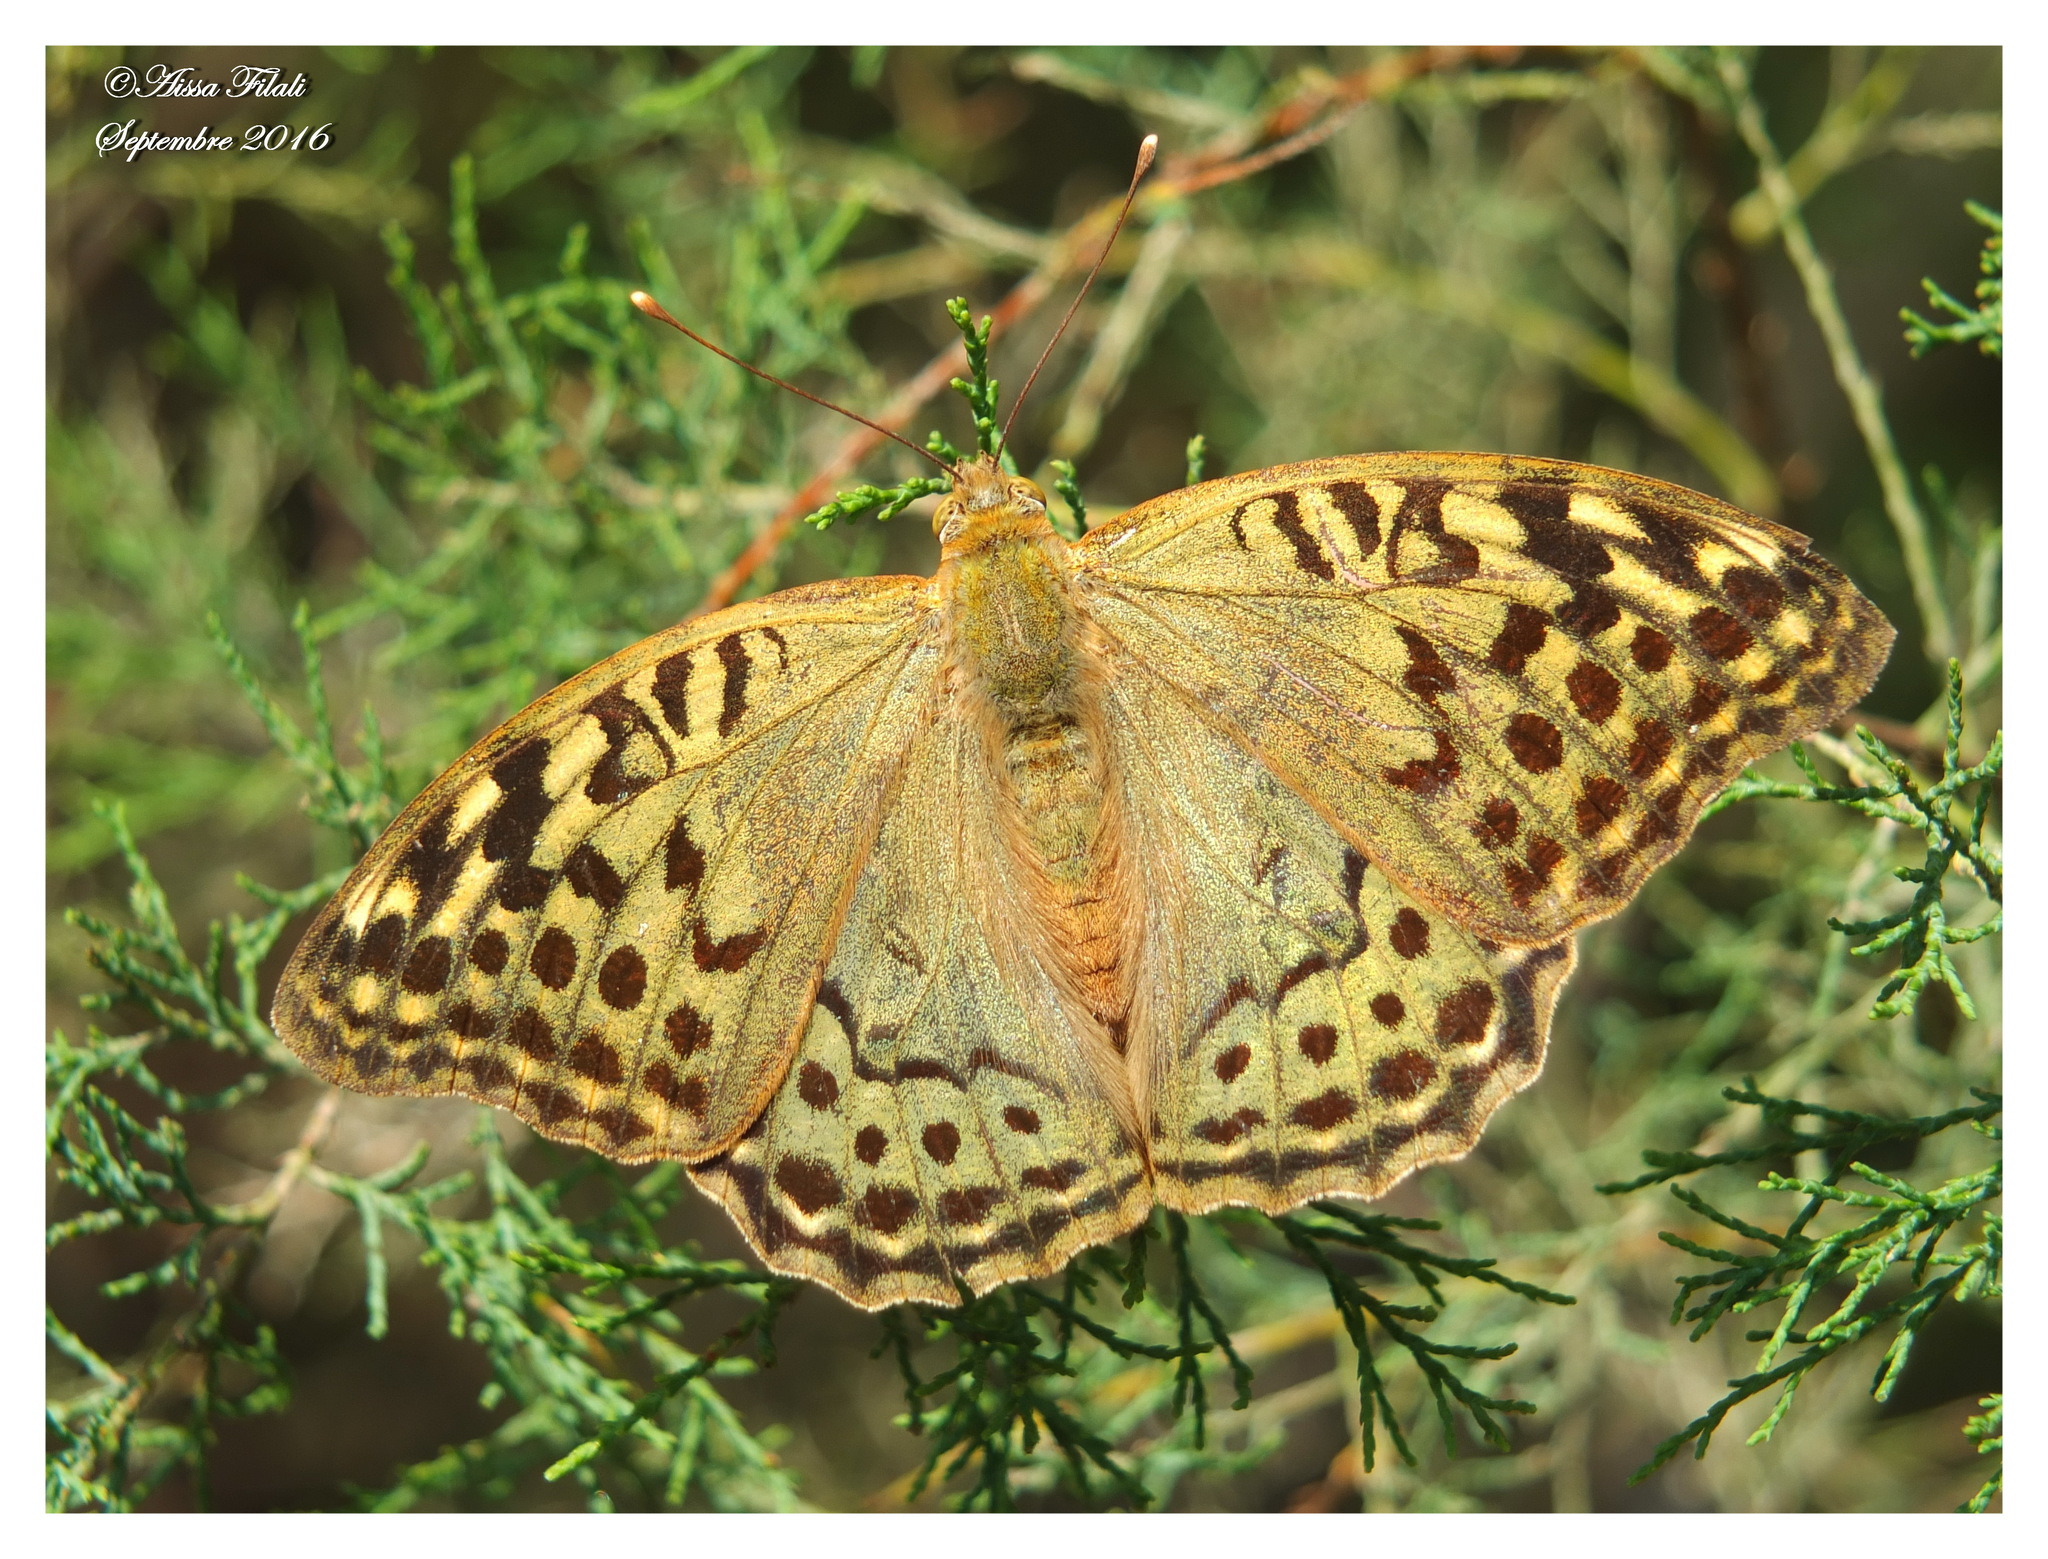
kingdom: Animalia
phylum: Arthropoda
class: Insecta
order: Lepidoptera
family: Nymphalidae
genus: Damora
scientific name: Damora pandora
